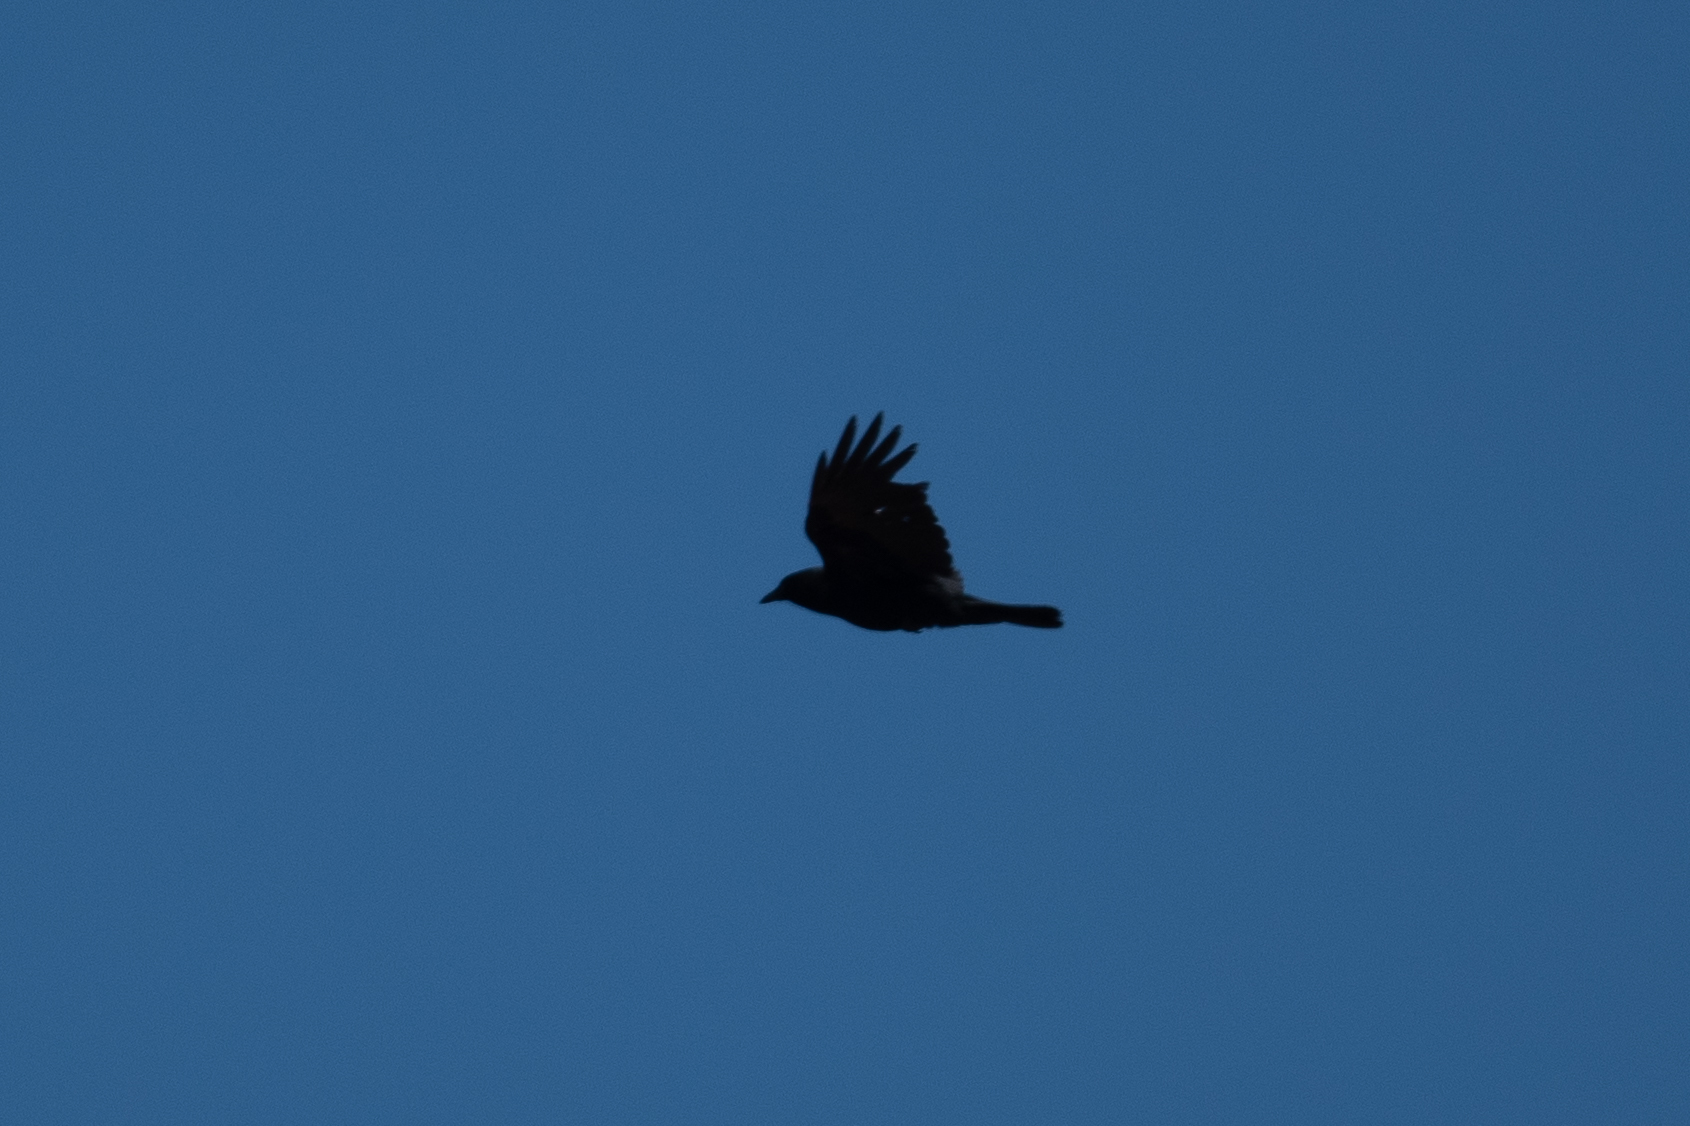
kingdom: Animalia
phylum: Chordata
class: Aves
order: Passeriformes
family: Corvidae
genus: Corvus
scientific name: Corvus brachyrhynchos
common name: American crow
